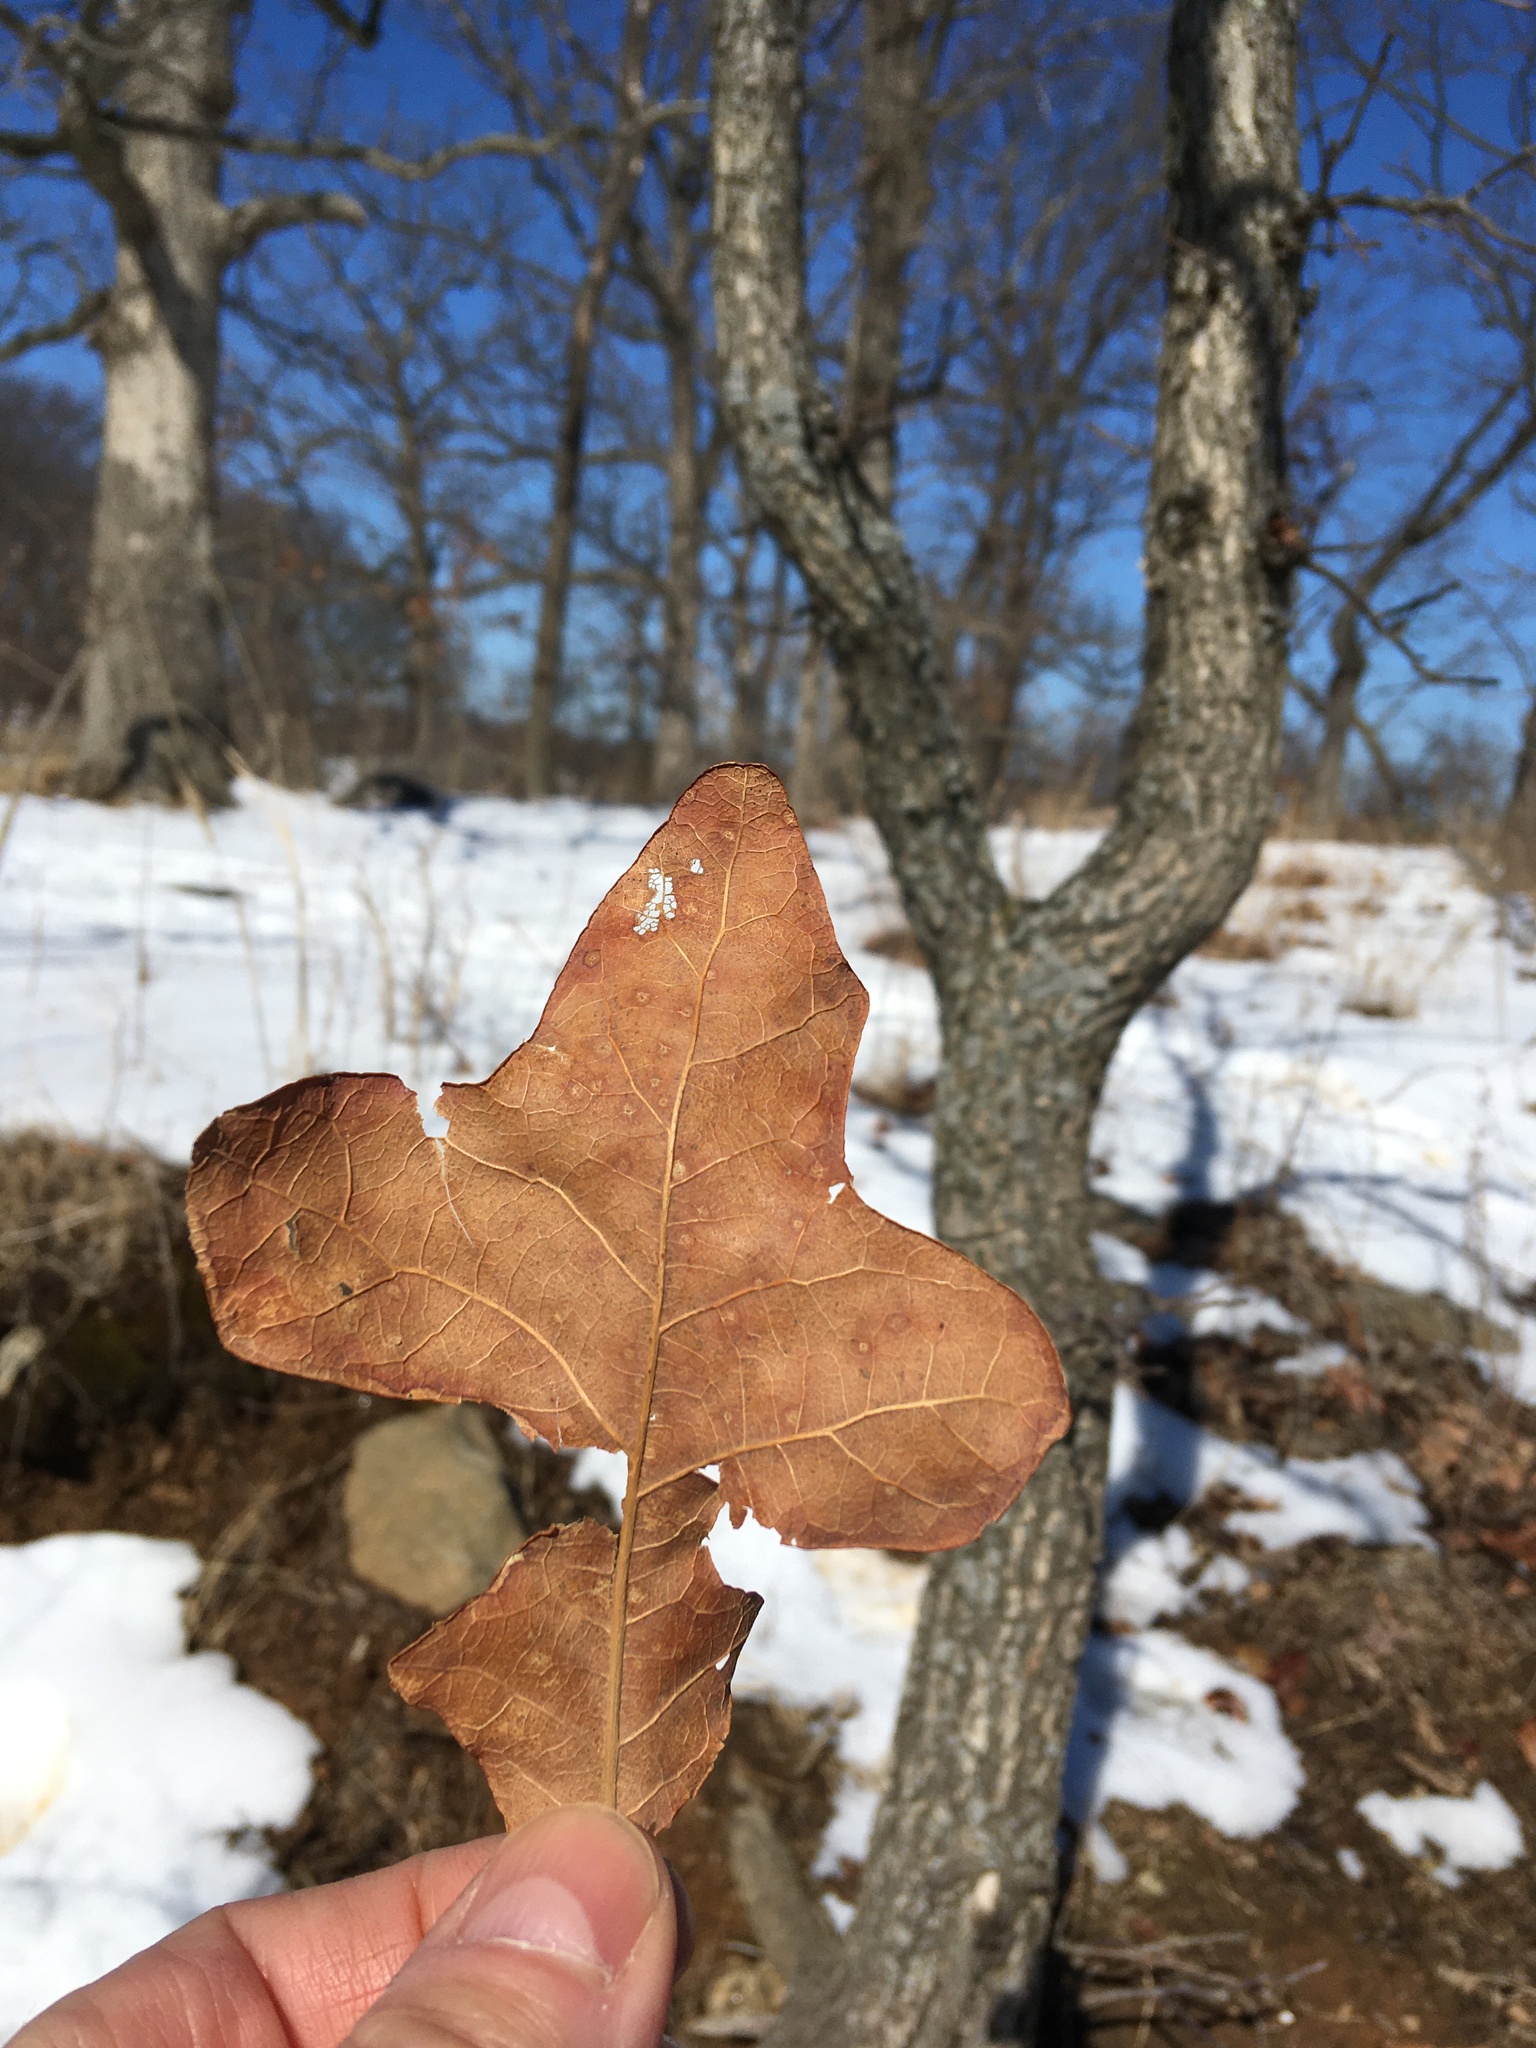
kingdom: Plantae
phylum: Tracheophyta
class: Magnoliopsida
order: Fagales
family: Fagaceae
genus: Quercus
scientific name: Quercus stellata
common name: Post oak
